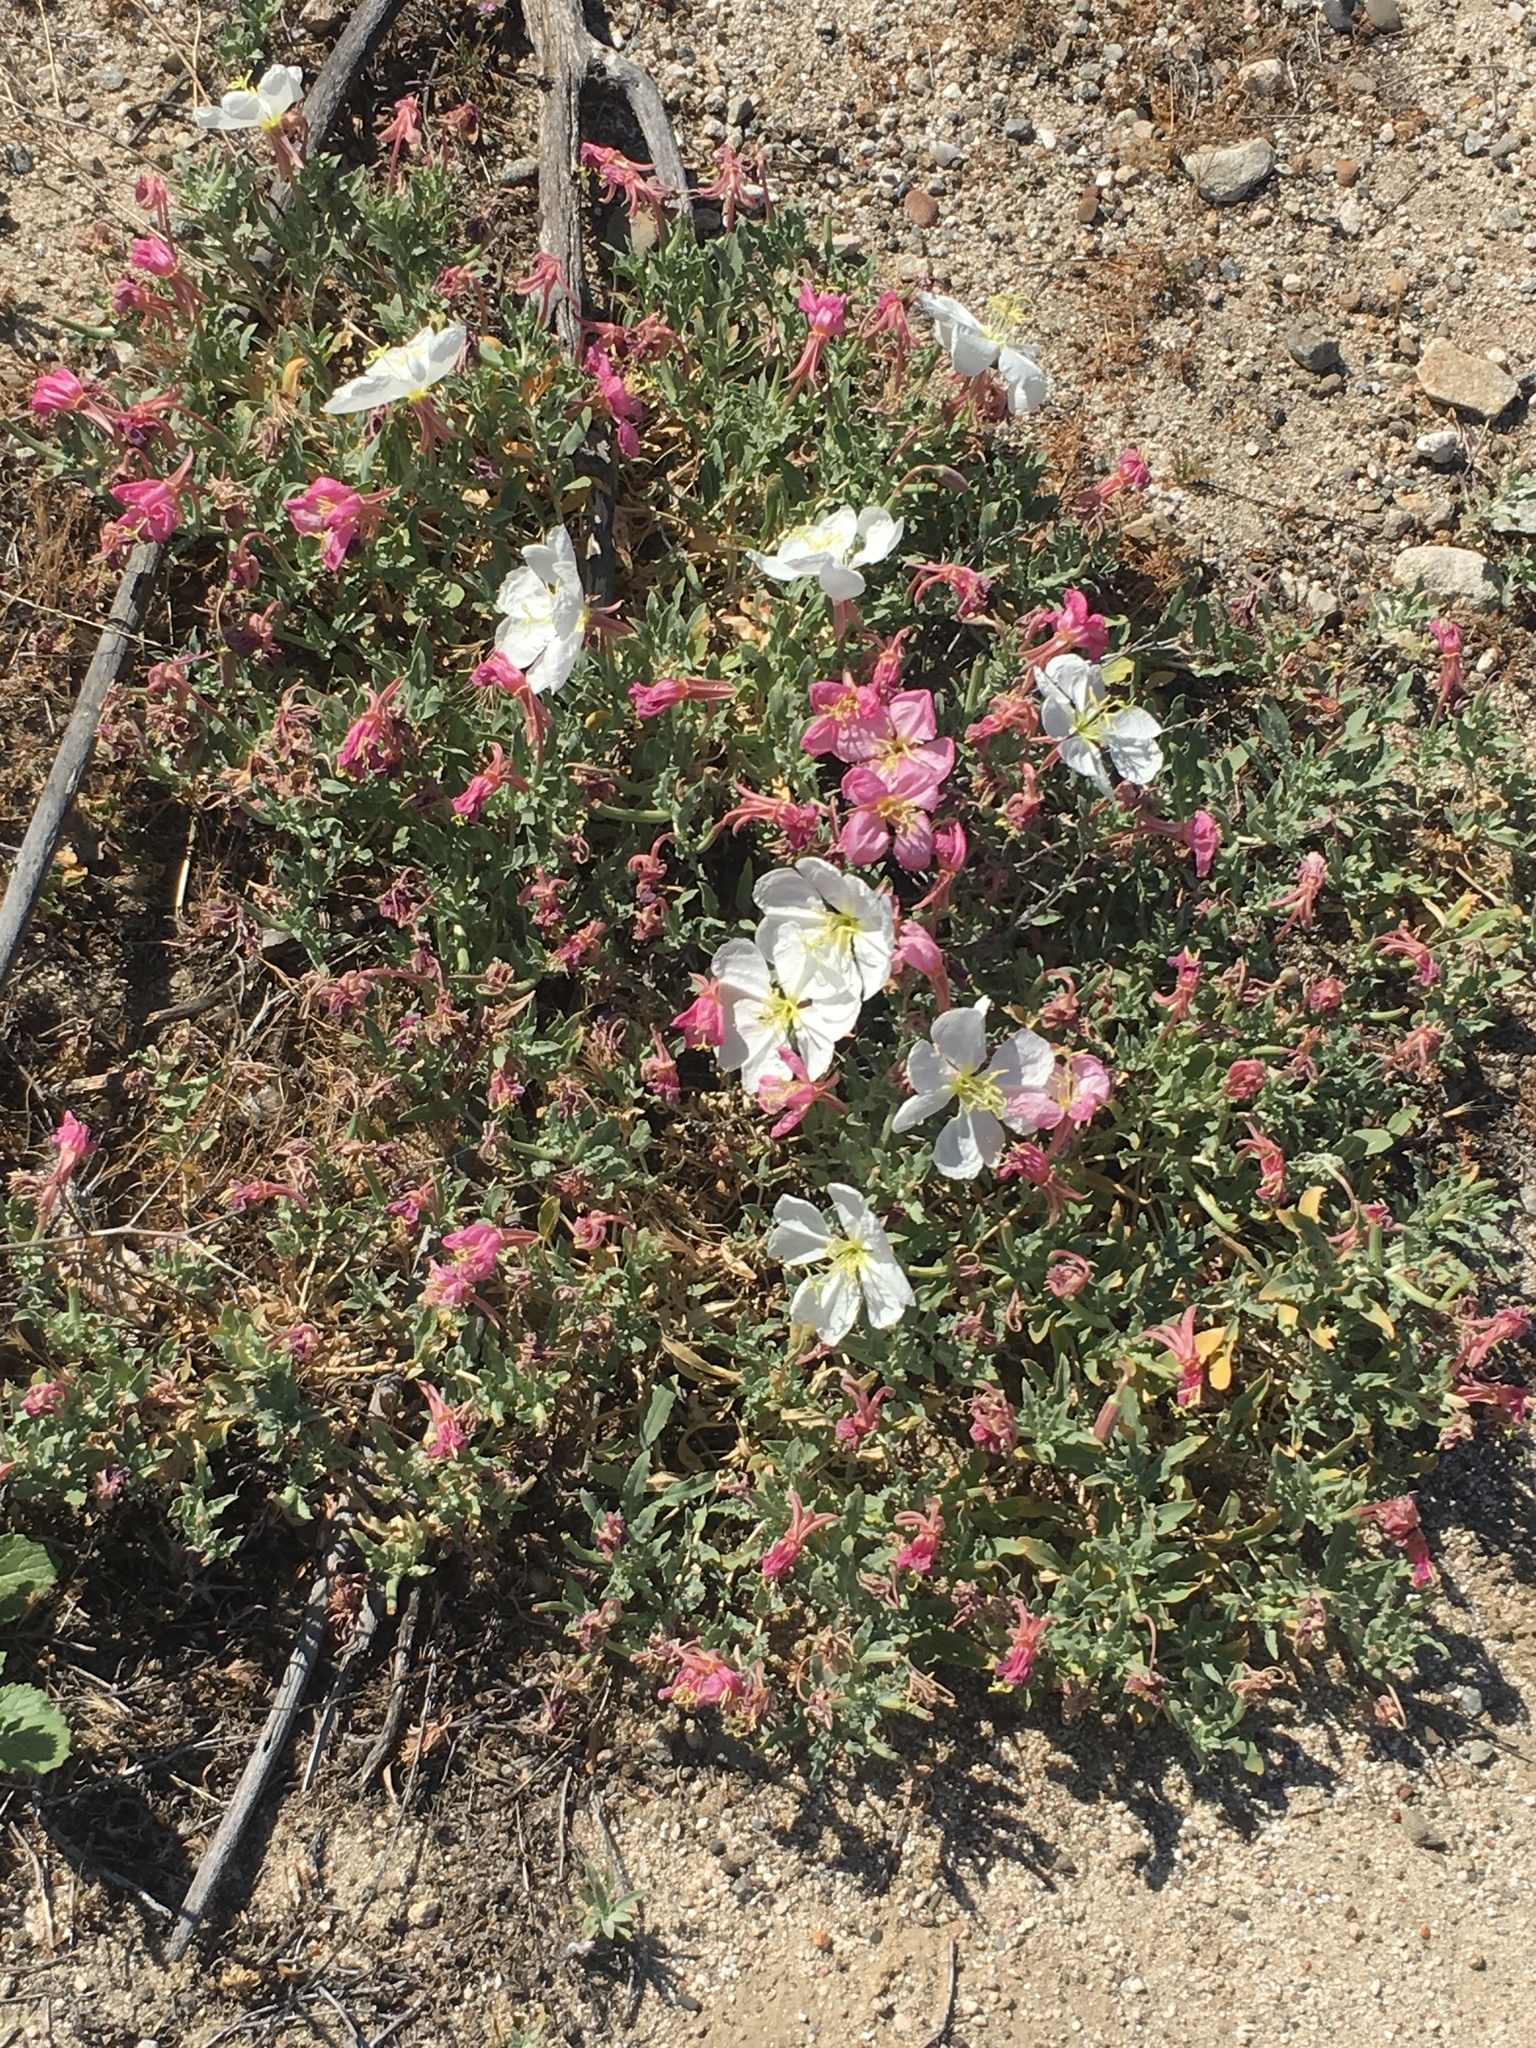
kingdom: Plantae
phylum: Tracheophyta
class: Magnoliopsida
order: Myrtales
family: Onagraceae
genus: Oenothera
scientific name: Oenothera californica
